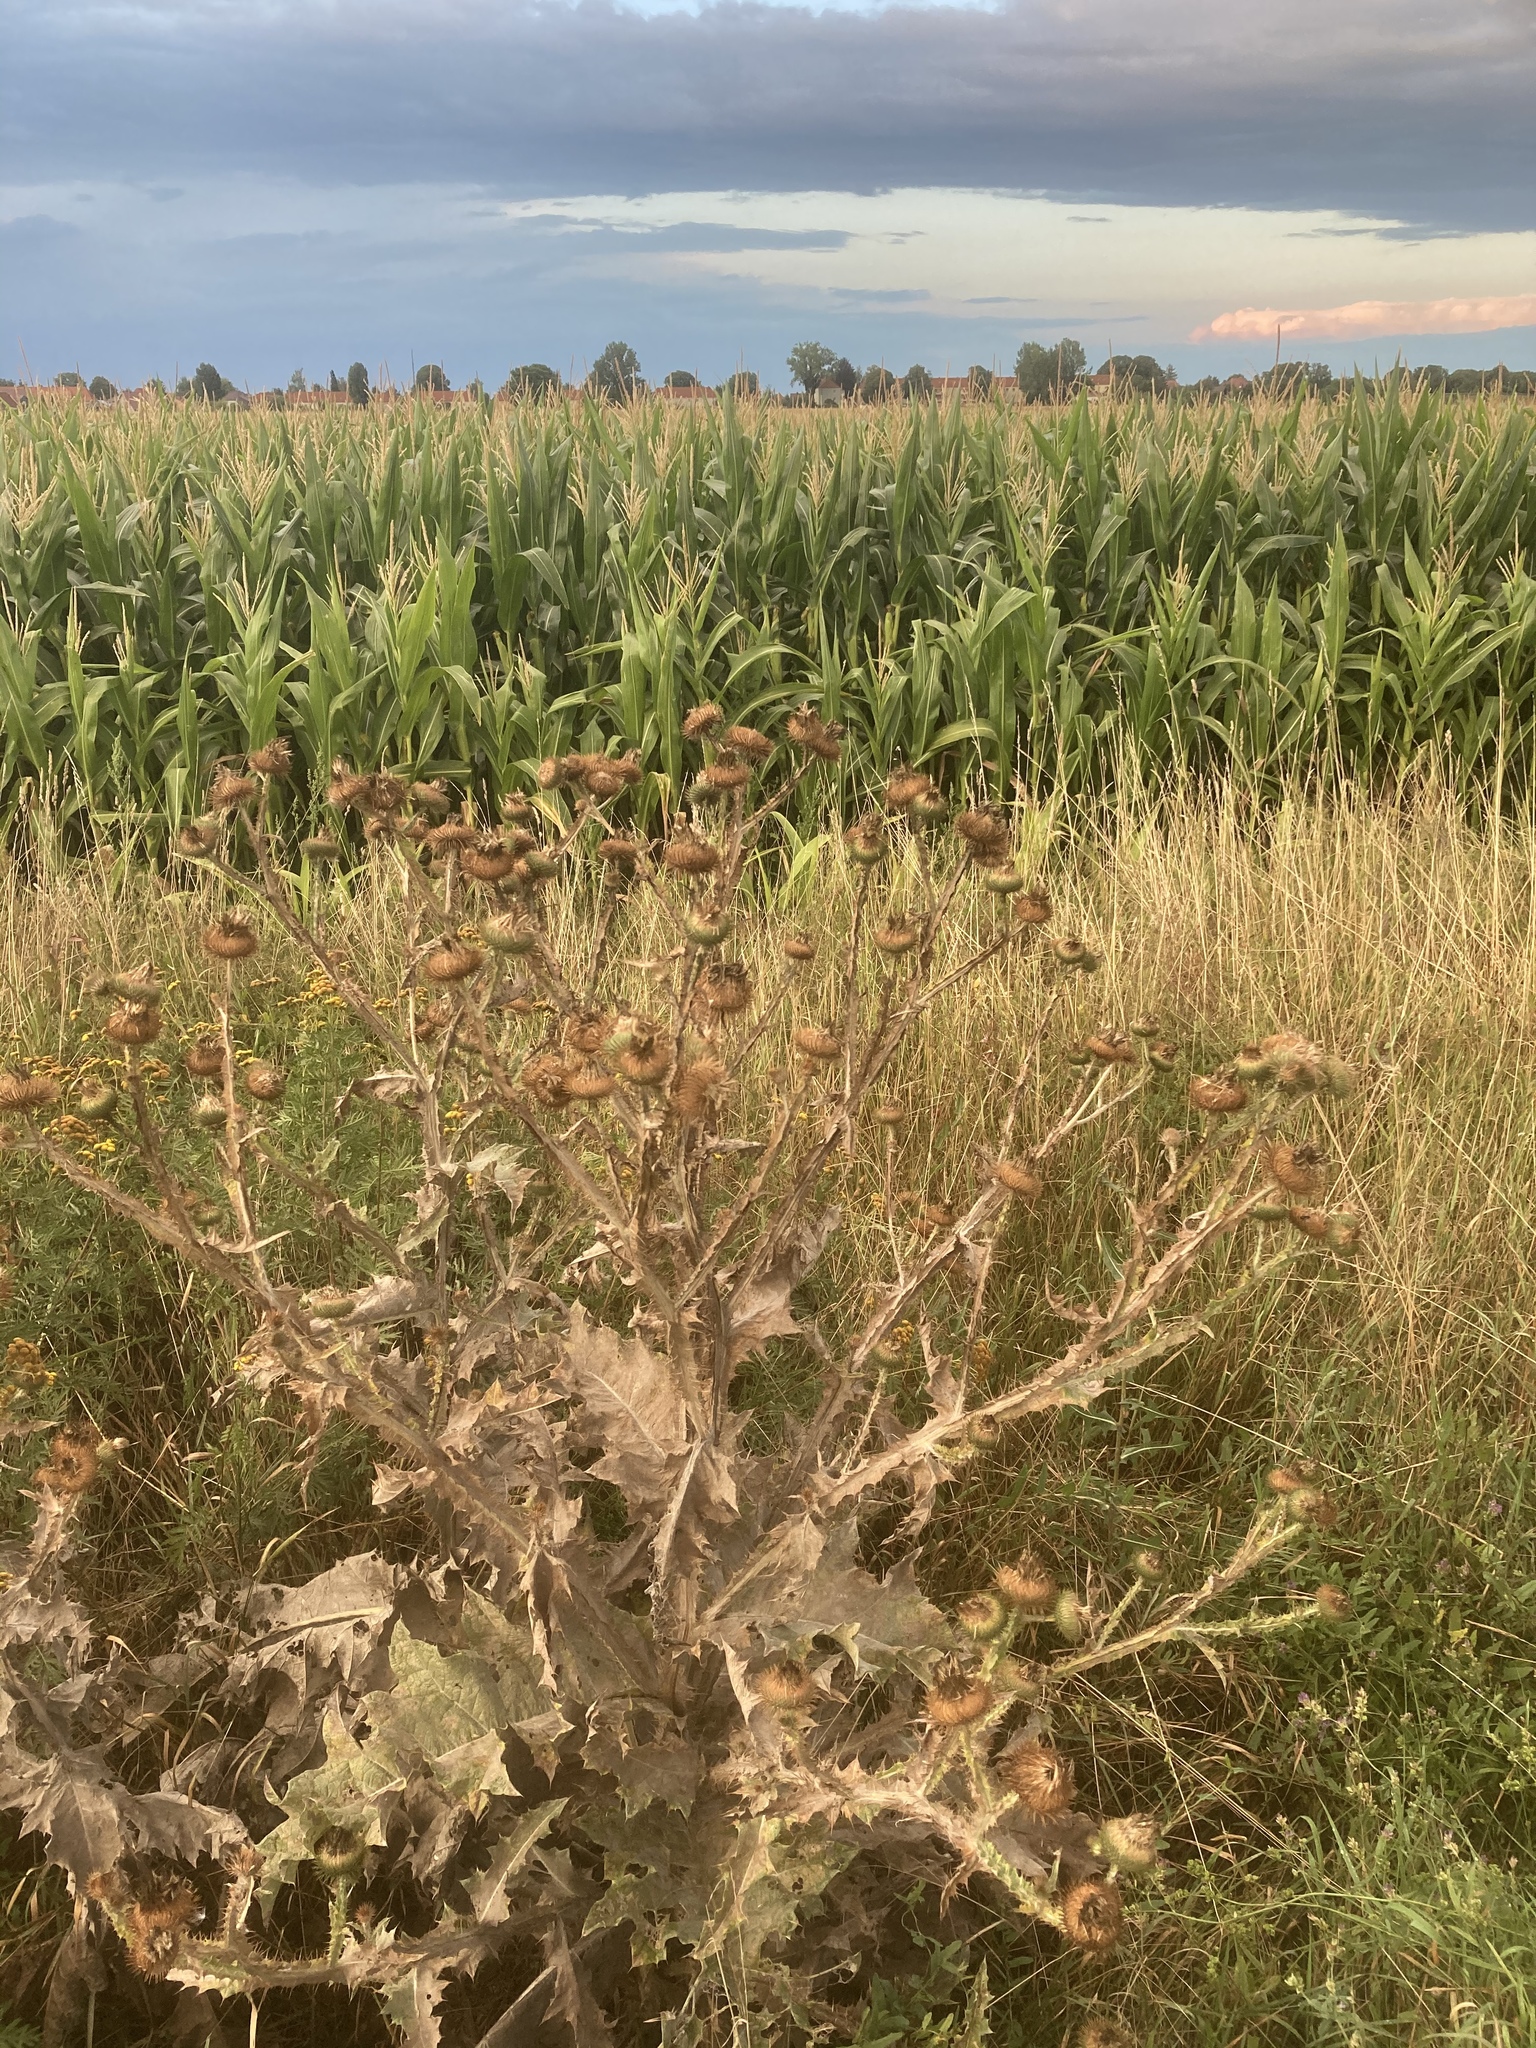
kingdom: Plantae
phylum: Tracheophyta
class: Magnoliopsida
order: Asterales
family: Asteraceae
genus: Onopordum
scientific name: Onopordum acanthium
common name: Scotch thistle
